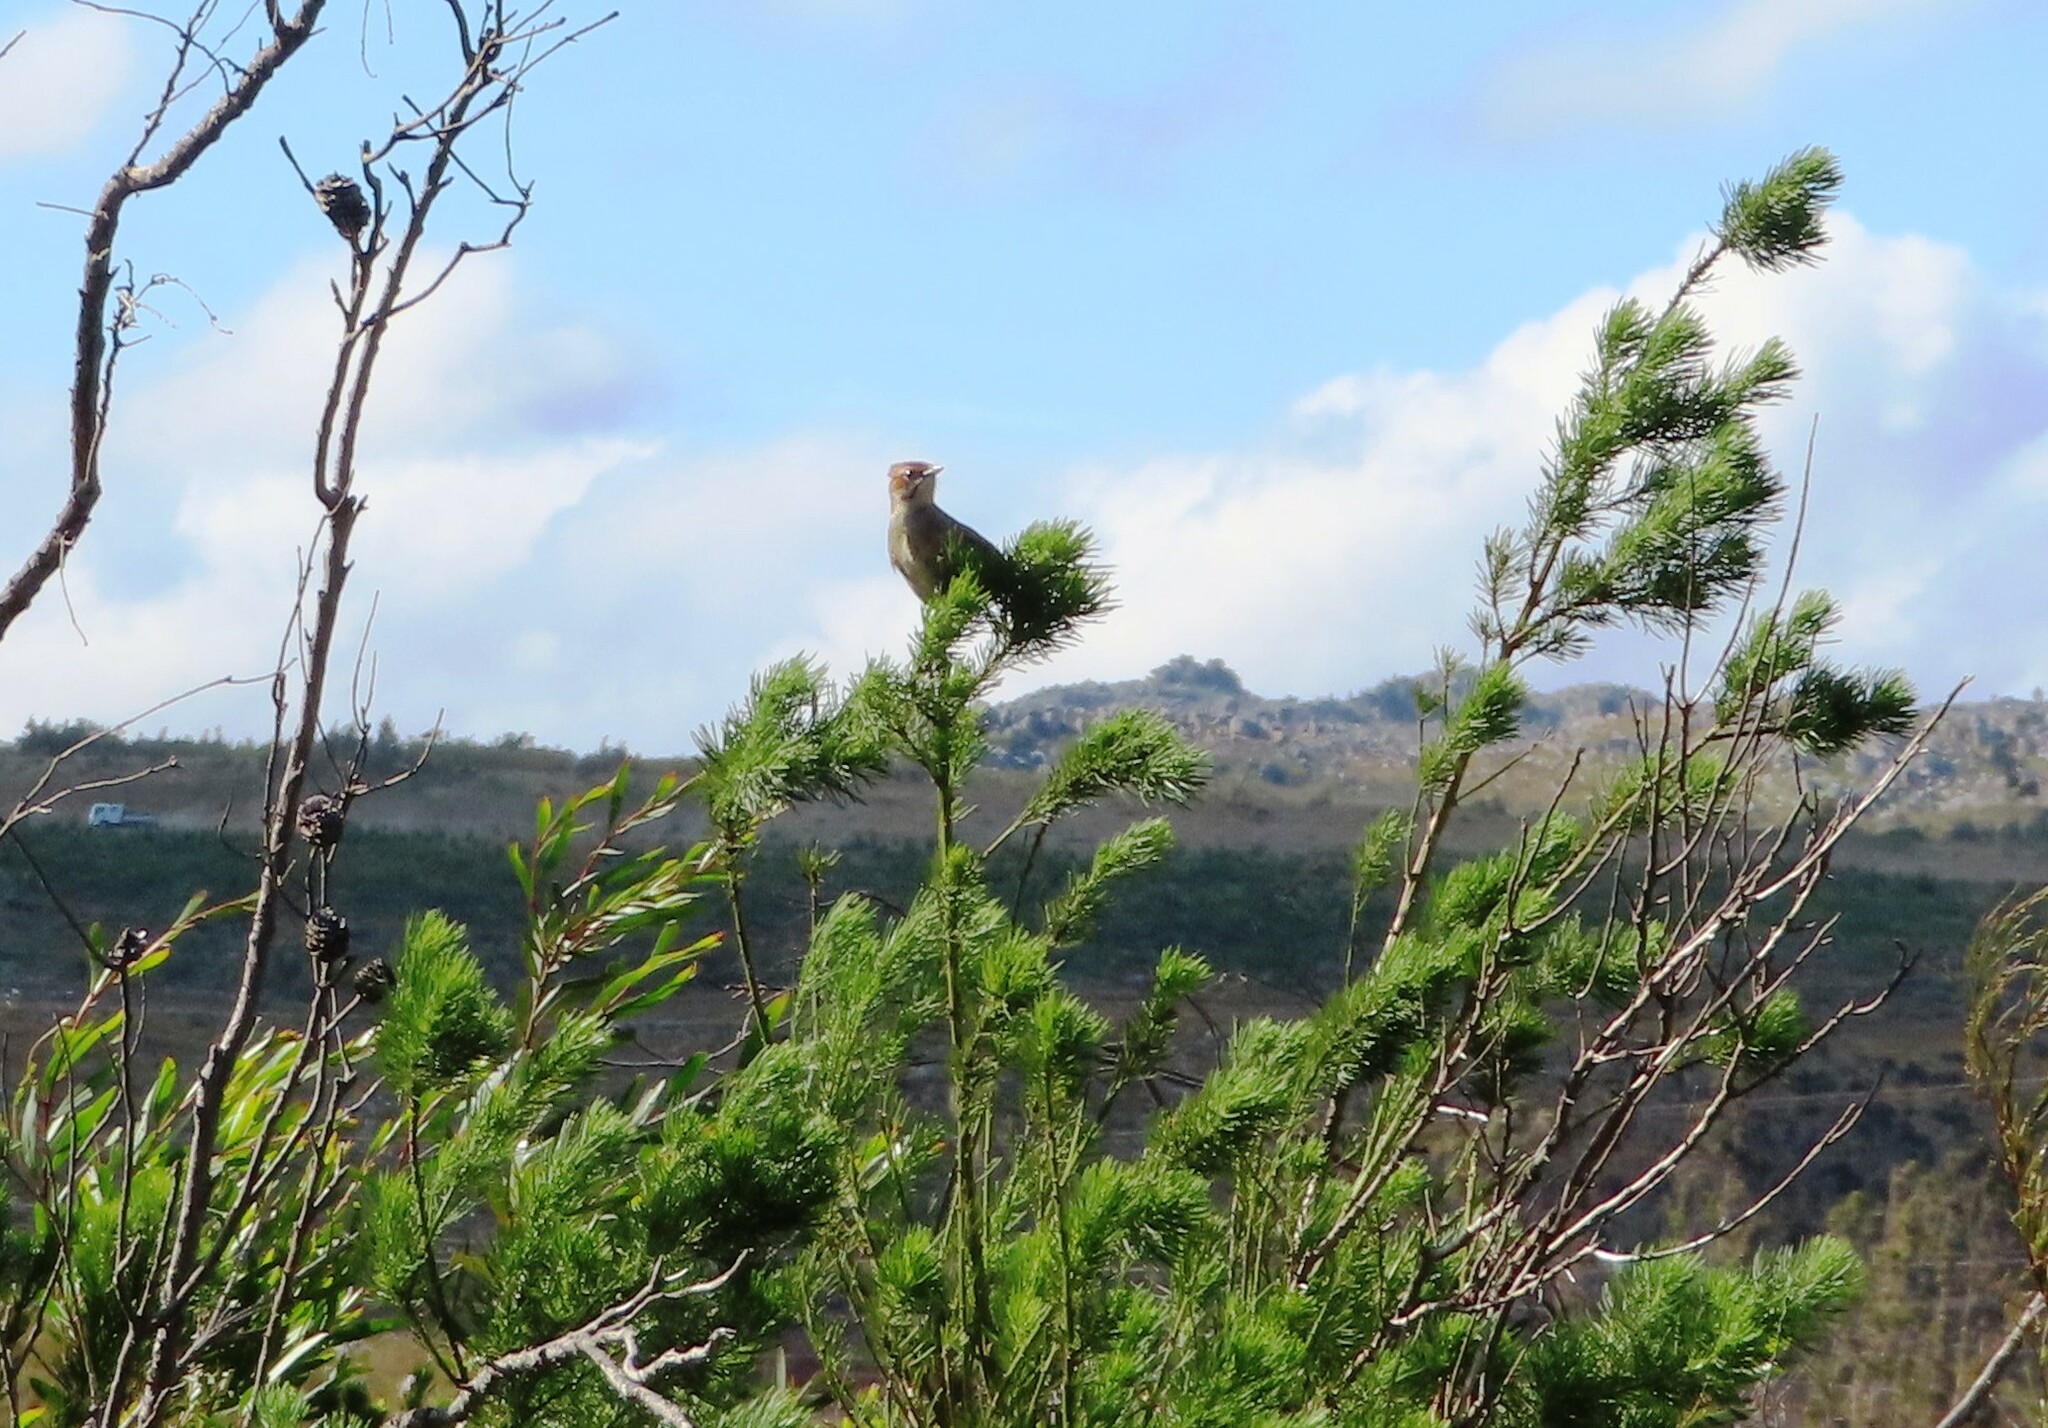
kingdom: Animalia
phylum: Chordata
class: Aves
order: Passeriformes
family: Macrosphenidae
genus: Sphenoeacus
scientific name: Sphenoeacus afer
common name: Cape grassbird
